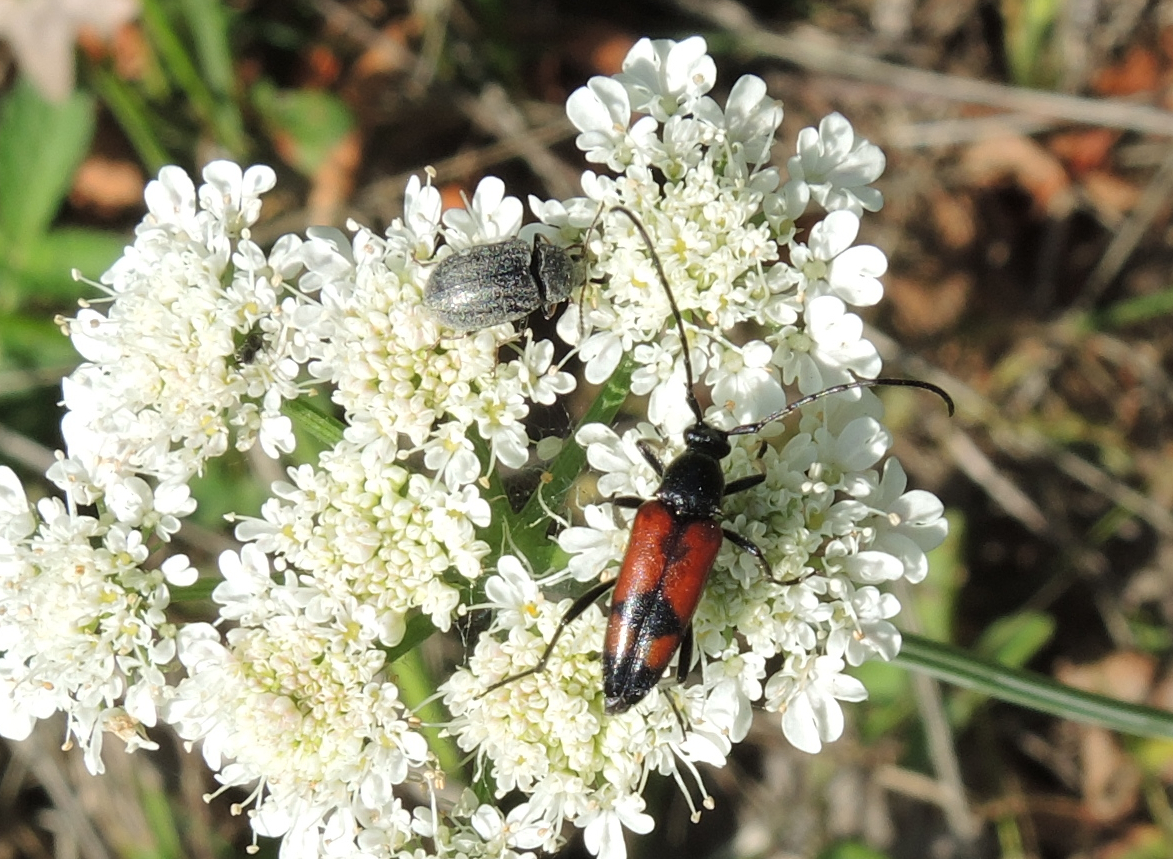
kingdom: Animalia
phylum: Arthropoda
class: Insecta
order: Coleoptera
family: Cerambycidae
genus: Stenurella
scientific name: Stenurella bifasciata
